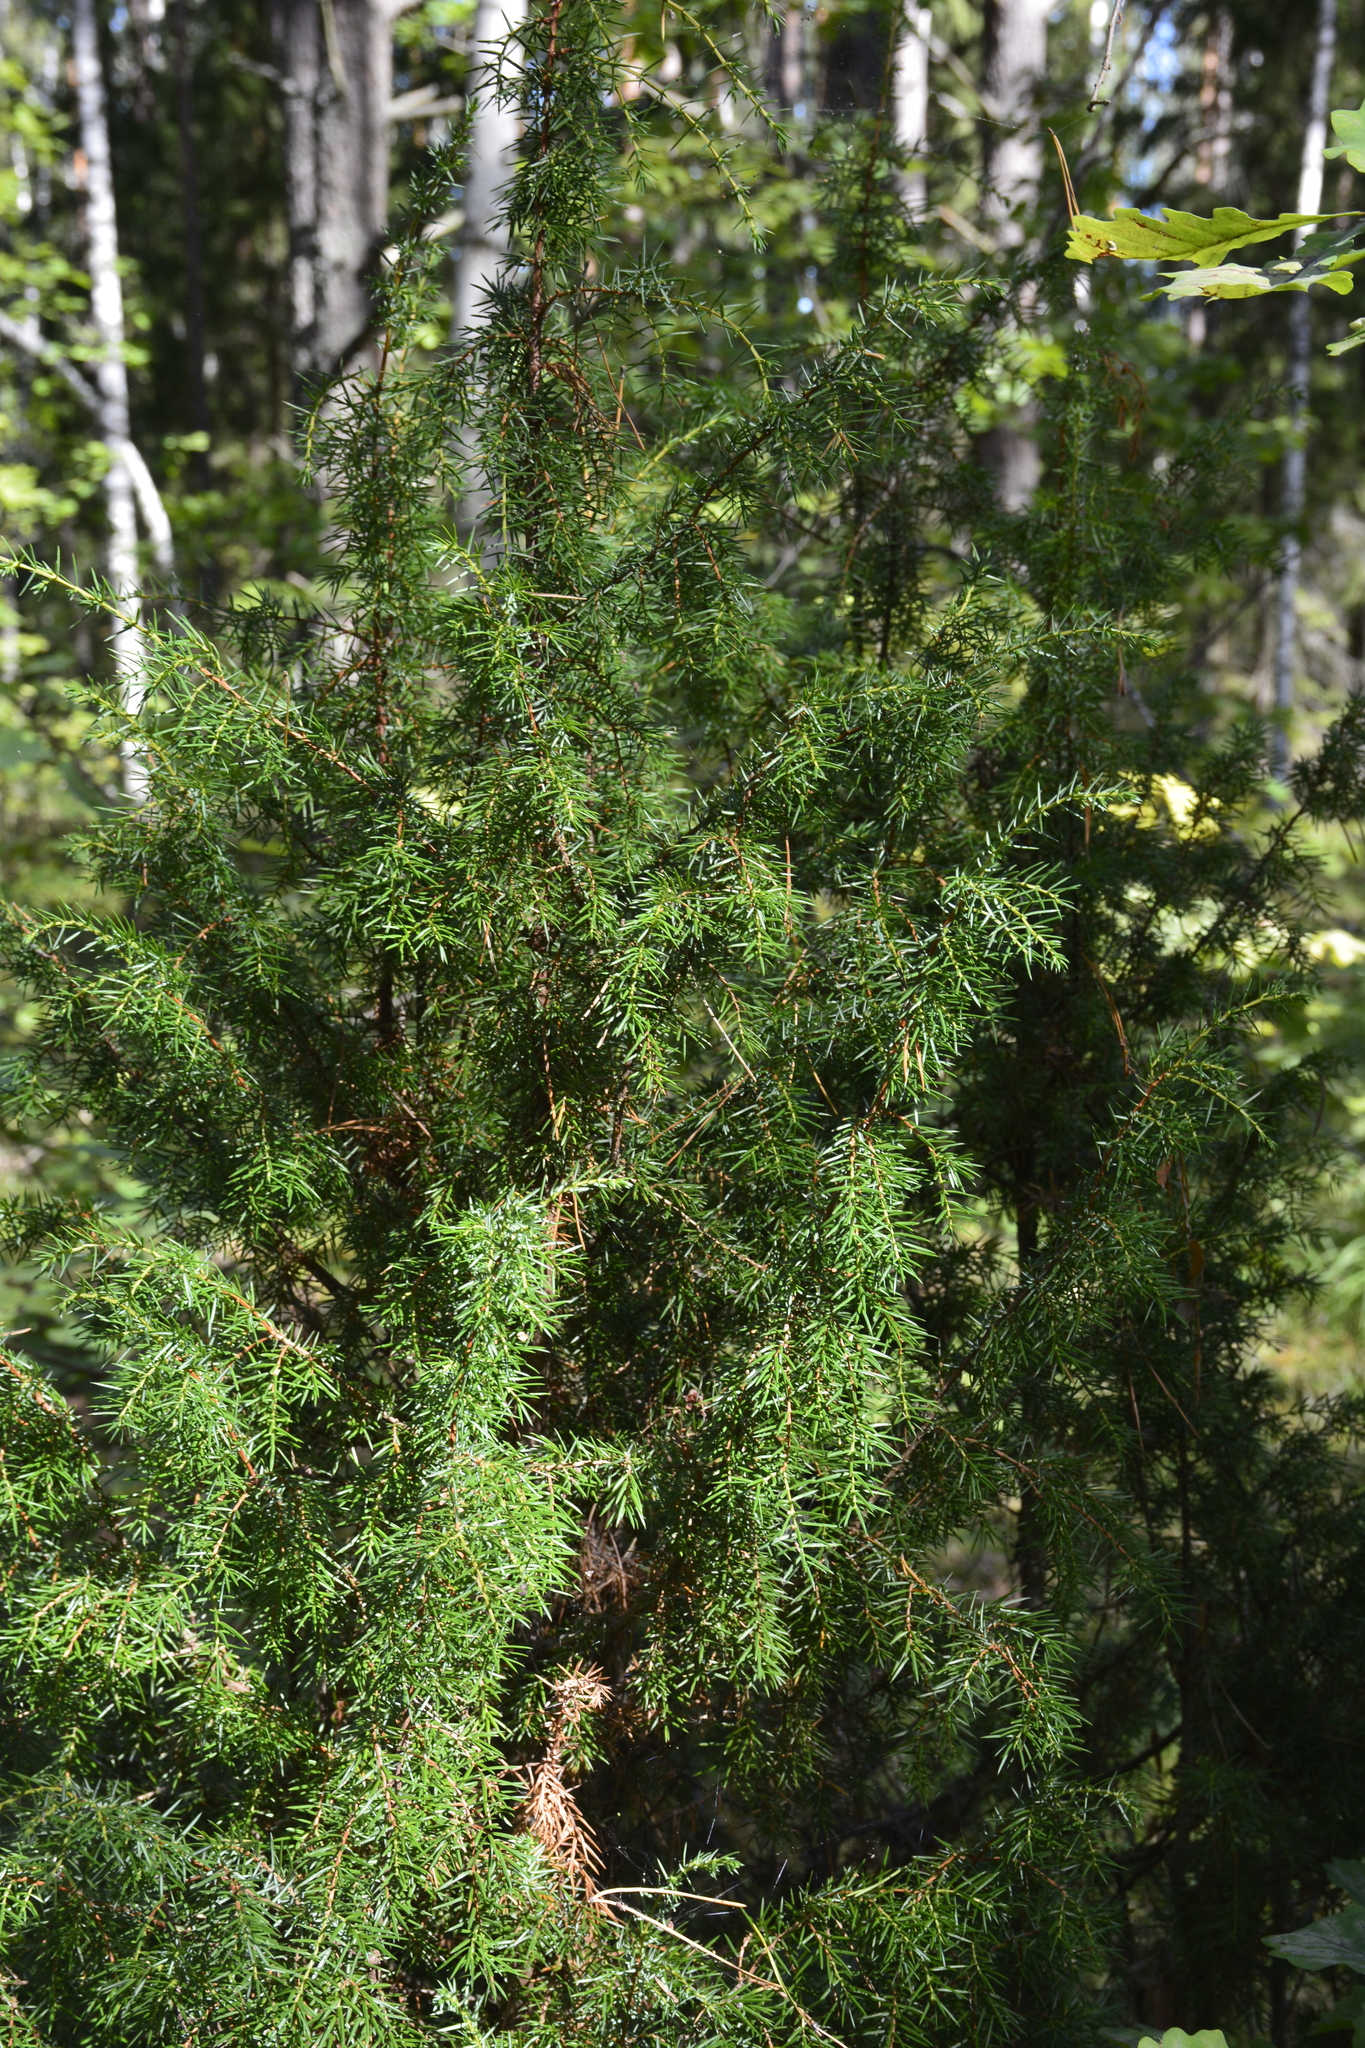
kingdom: Plantae
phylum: Tracheophyta
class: Pinopsida
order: Pinales
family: Cupressaceae
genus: Juniperus
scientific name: Juniperus communis
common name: Common juniper
